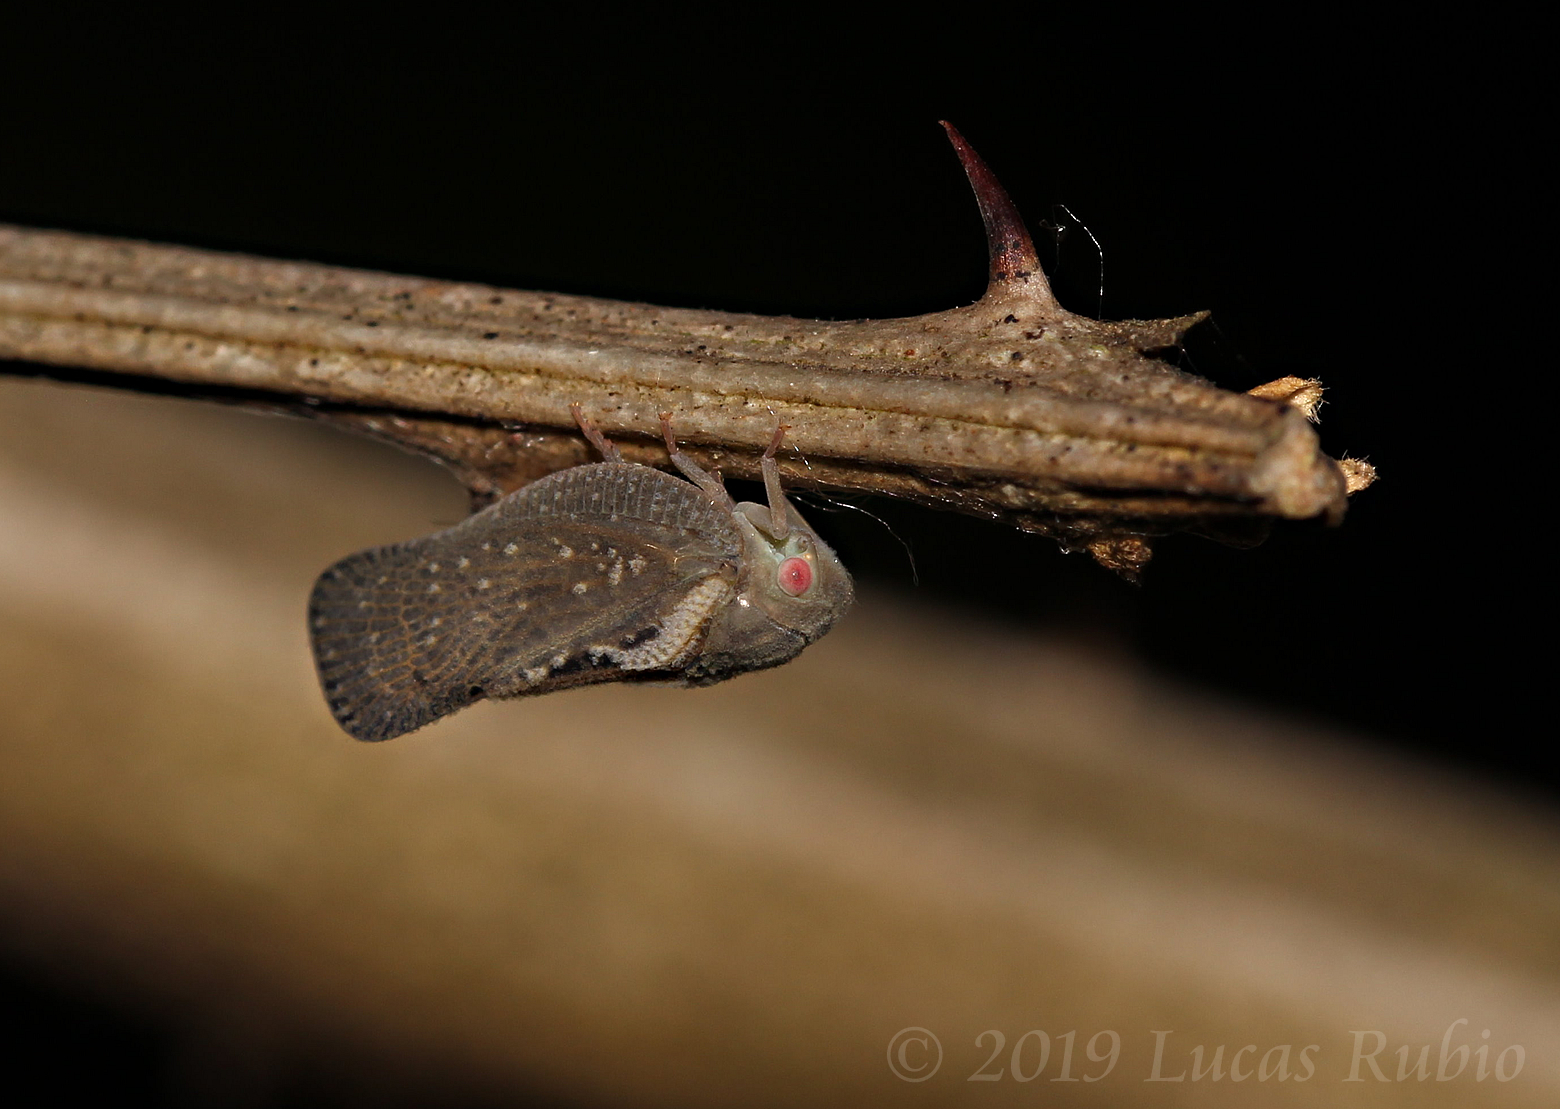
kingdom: Animalia
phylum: Arthropoda
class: Insecta
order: Hemiptera
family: Flatidae
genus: Epormenis
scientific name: Epormenis cestri
